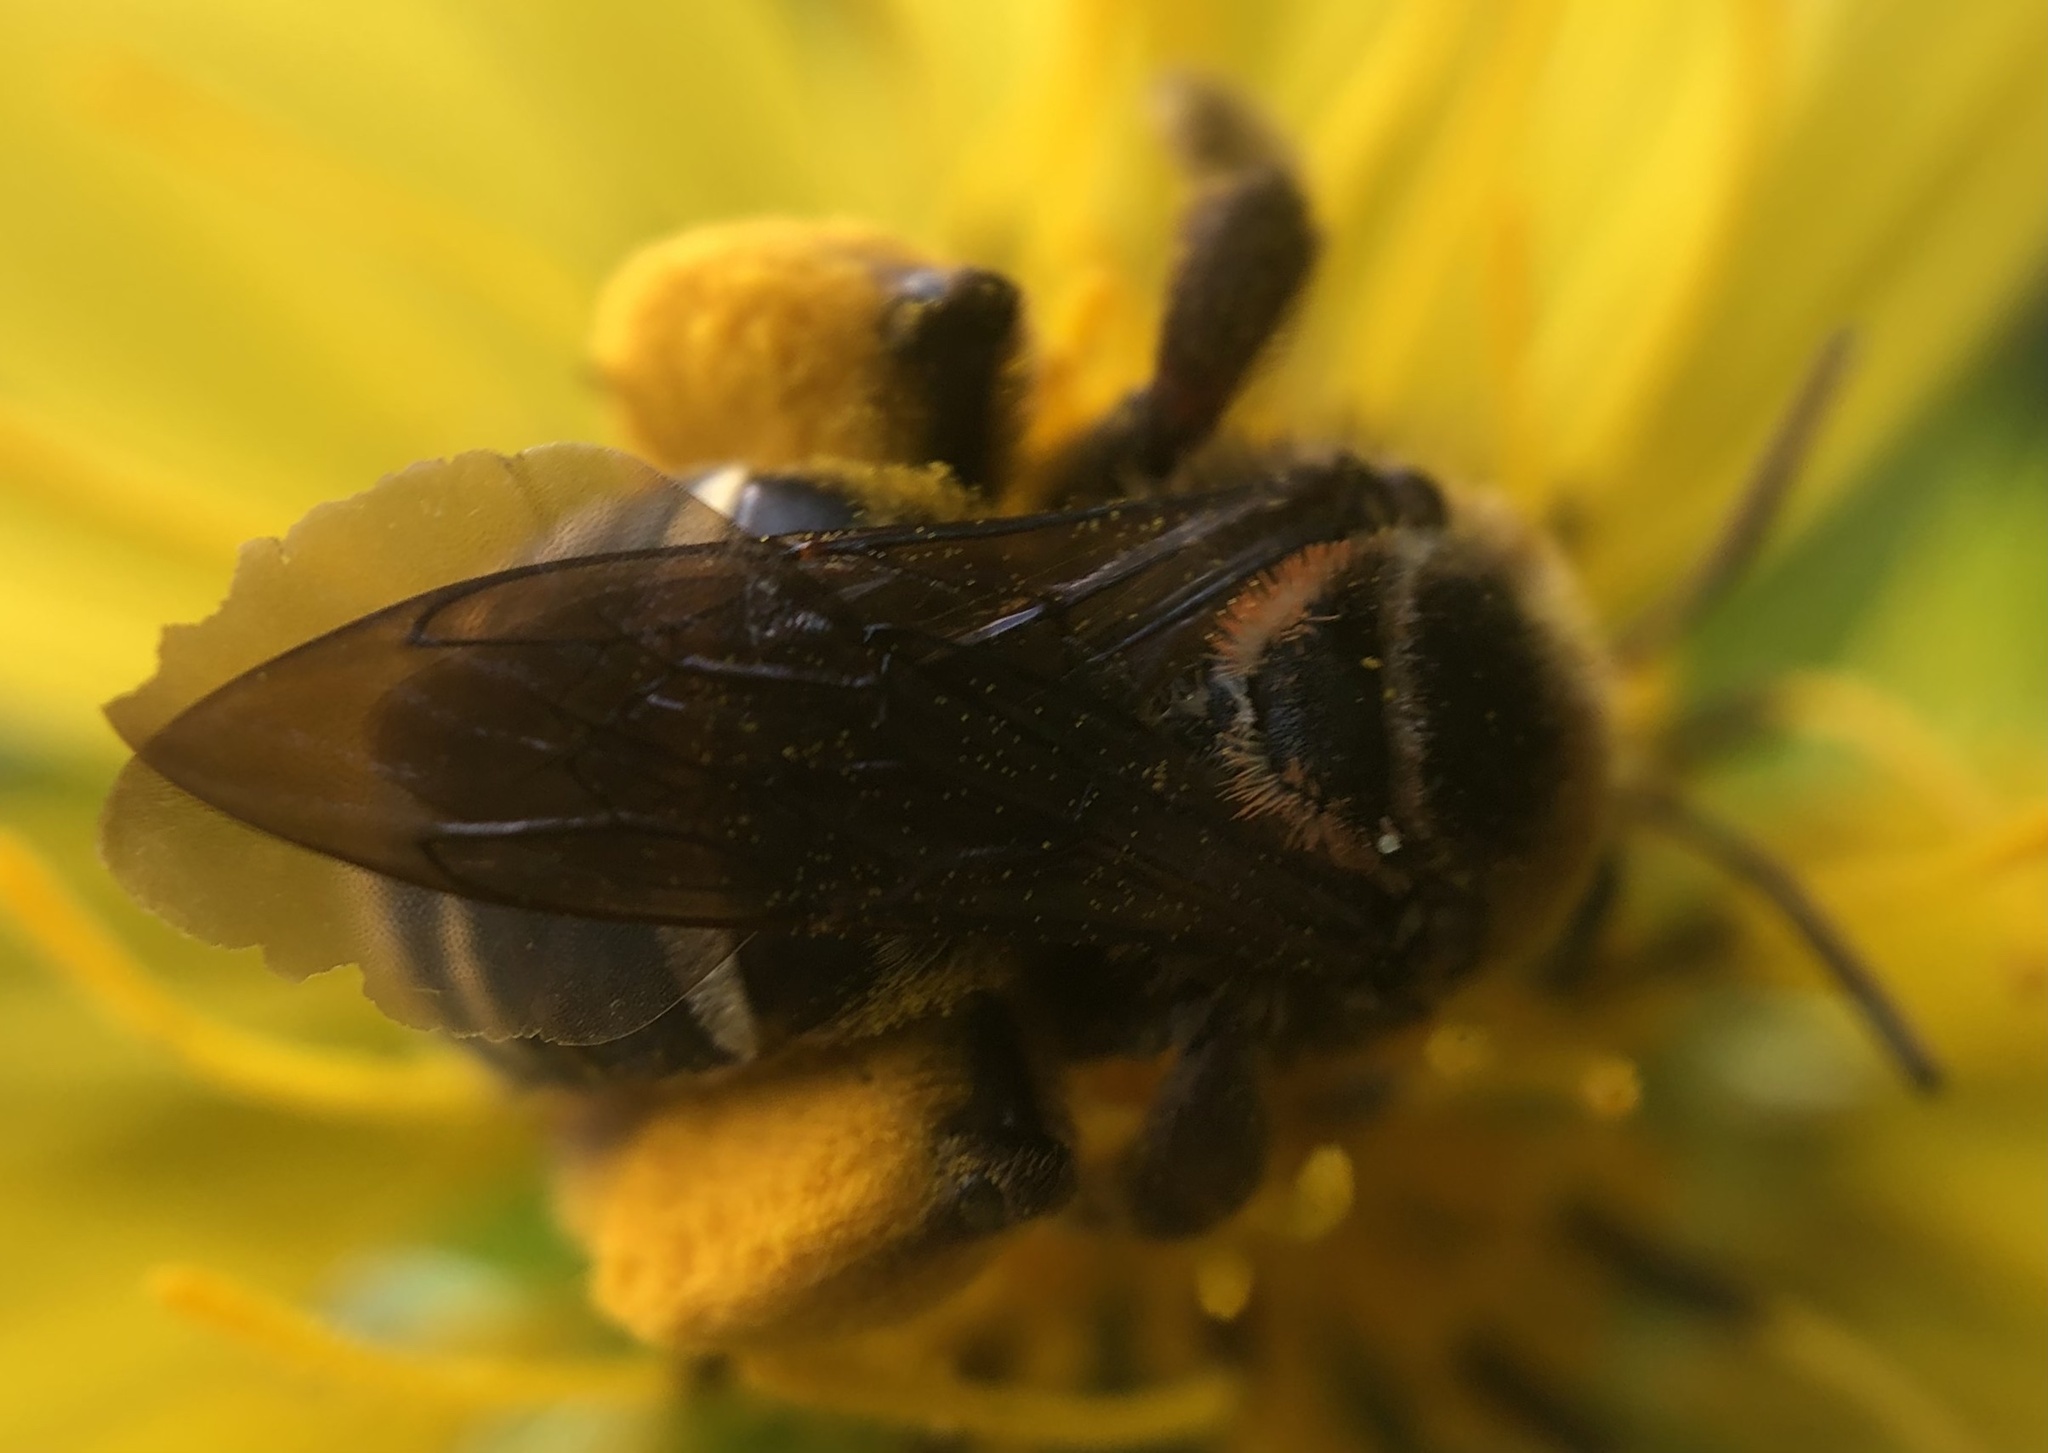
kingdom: Animalia
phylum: Arthropoda
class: Insecta
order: Hymenoptera
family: Apidae
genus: Svastra
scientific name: Svastra obliqua
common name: Oblique longhorn
